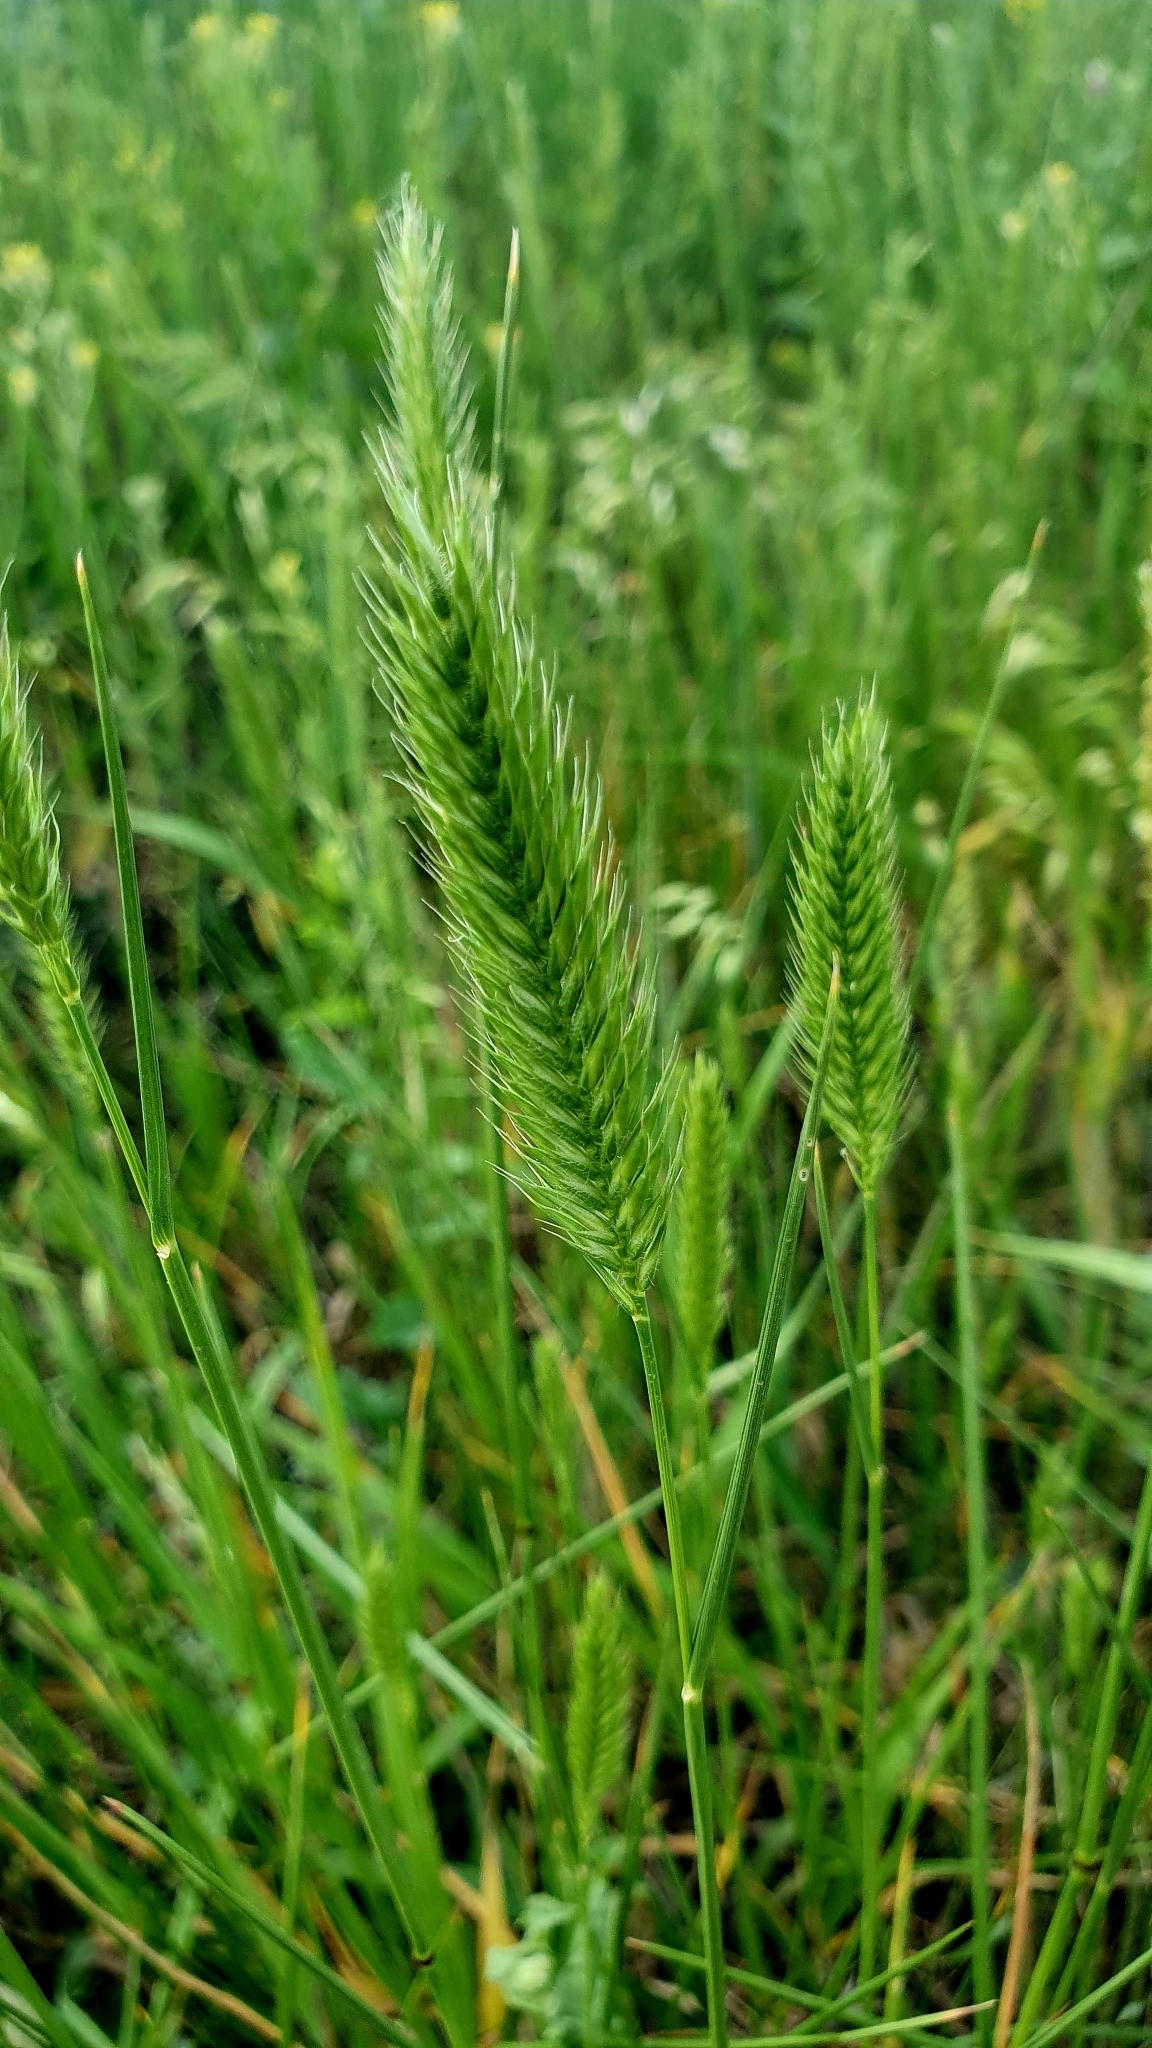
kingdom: Plantae
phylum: Tracheophyta
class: Liliopsida
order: Poales
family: Poaceae
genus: Agropyron
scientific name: Agropyron cristatum
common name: Crested wheatgrass
